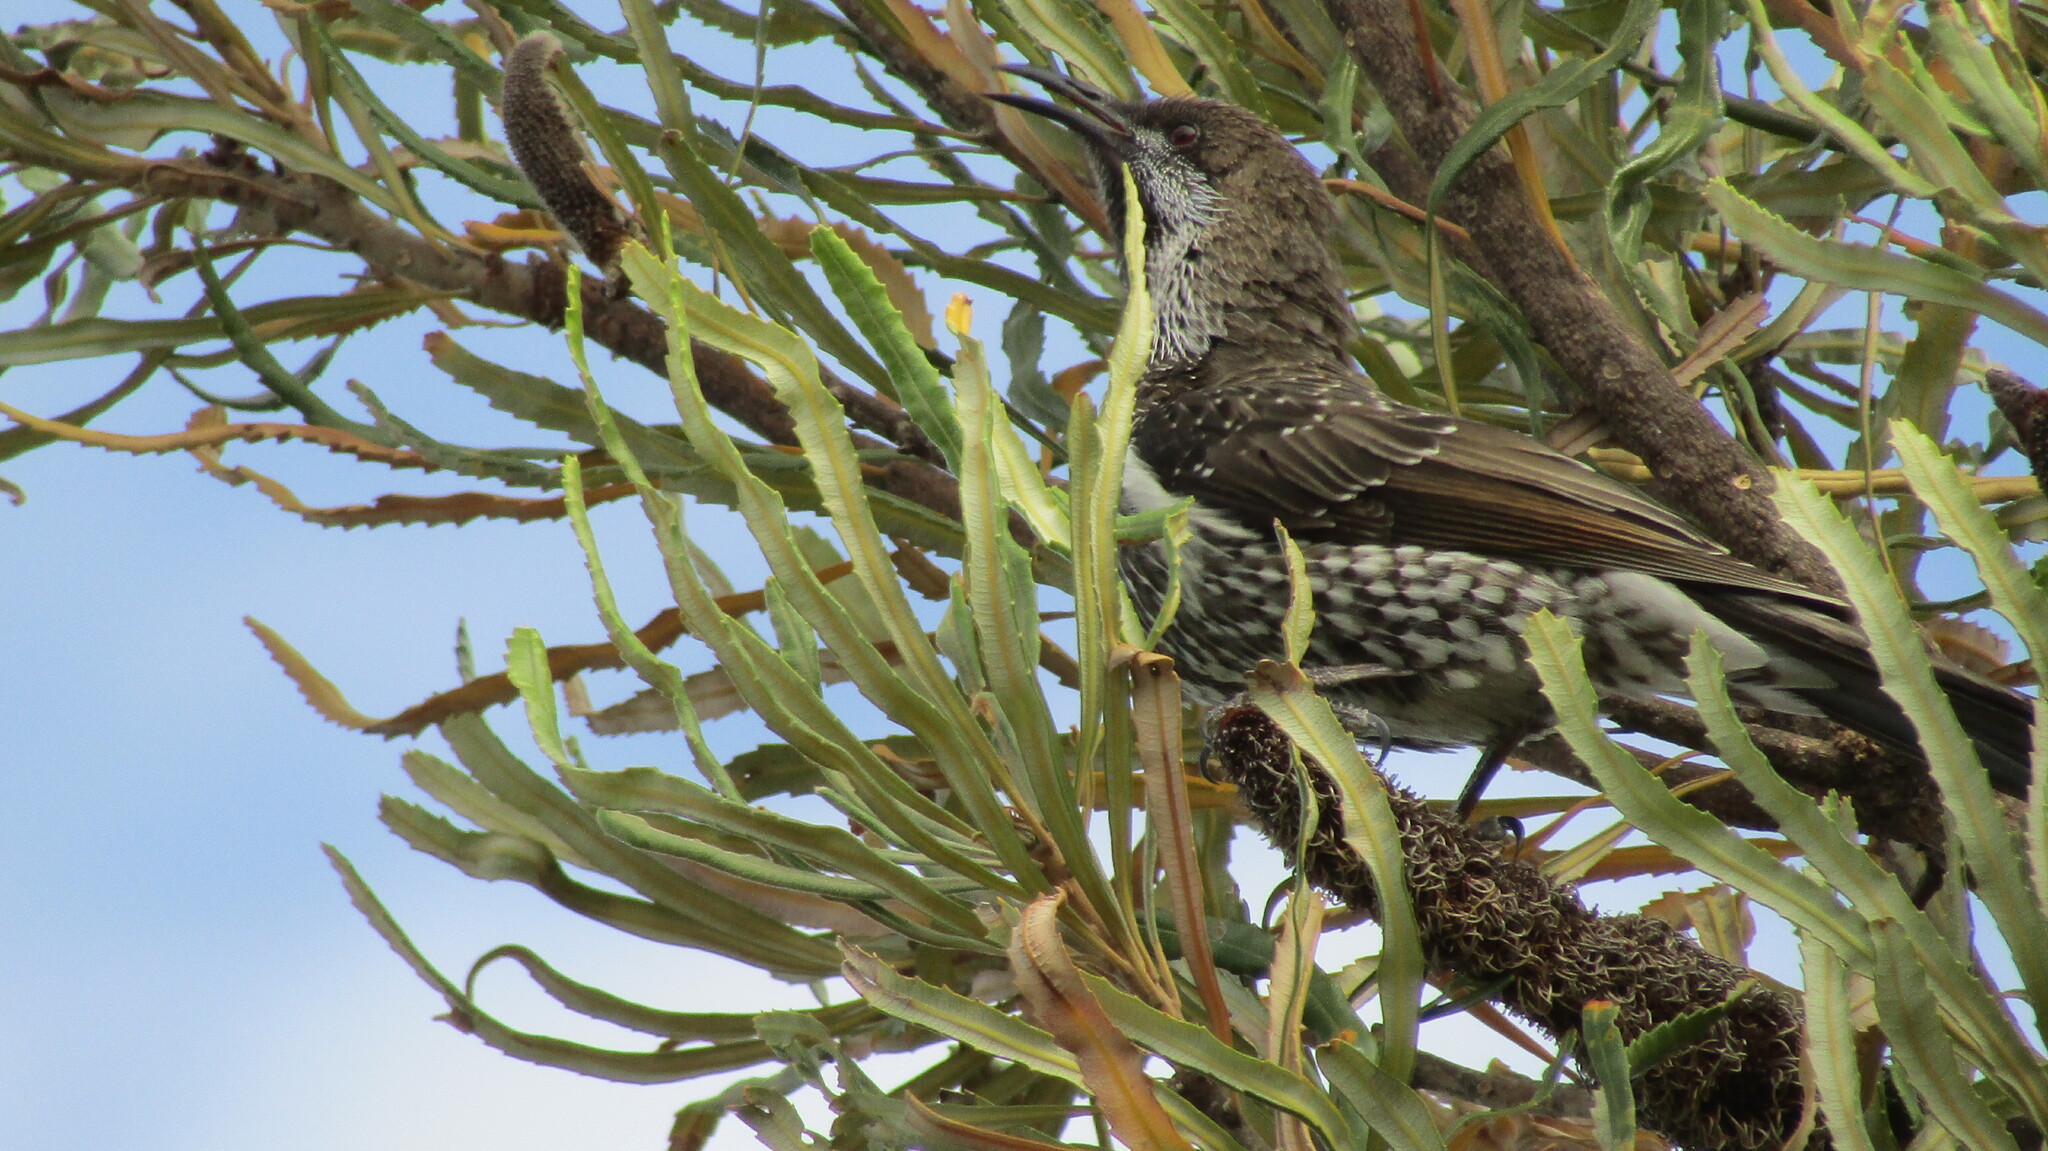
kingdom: Animalia
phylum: Chordata
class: Aves
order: Passeriformes
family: Meliphagidae
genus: Anthochaera
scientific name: Anthochaera lunulata
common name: Western wattlebird
